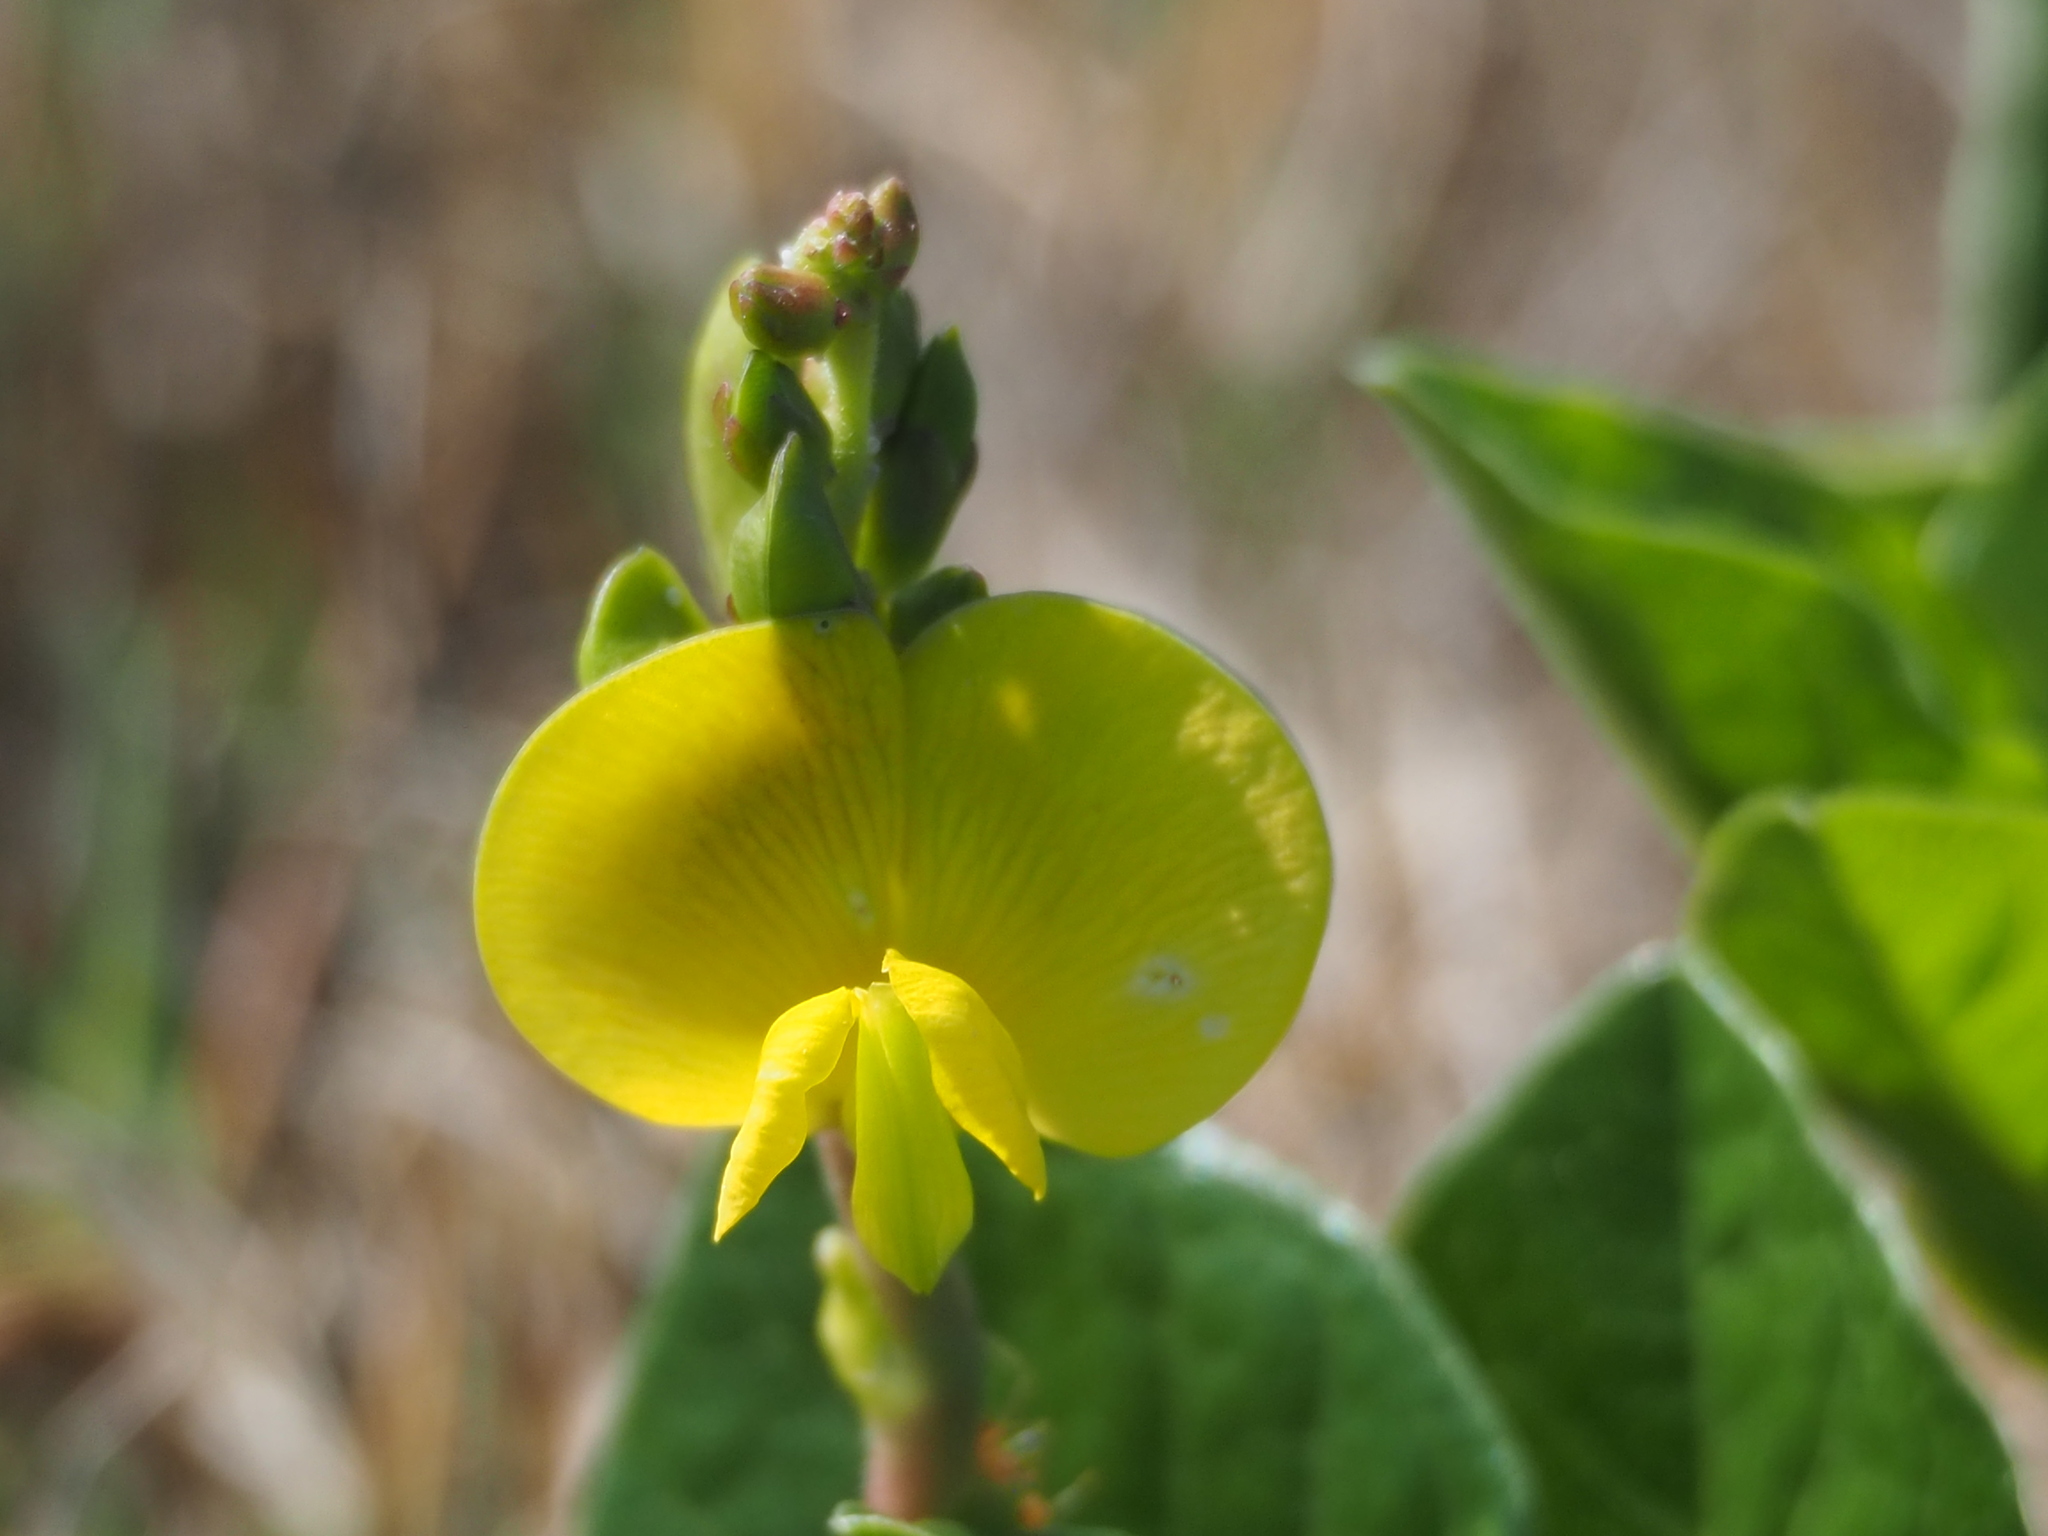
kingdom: Plantae
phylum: Tracheophyta
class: Magnoliopsida
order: Fabales
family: Fabaceae
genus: Vigna
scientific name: Vigna marina
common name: Dune-bean
